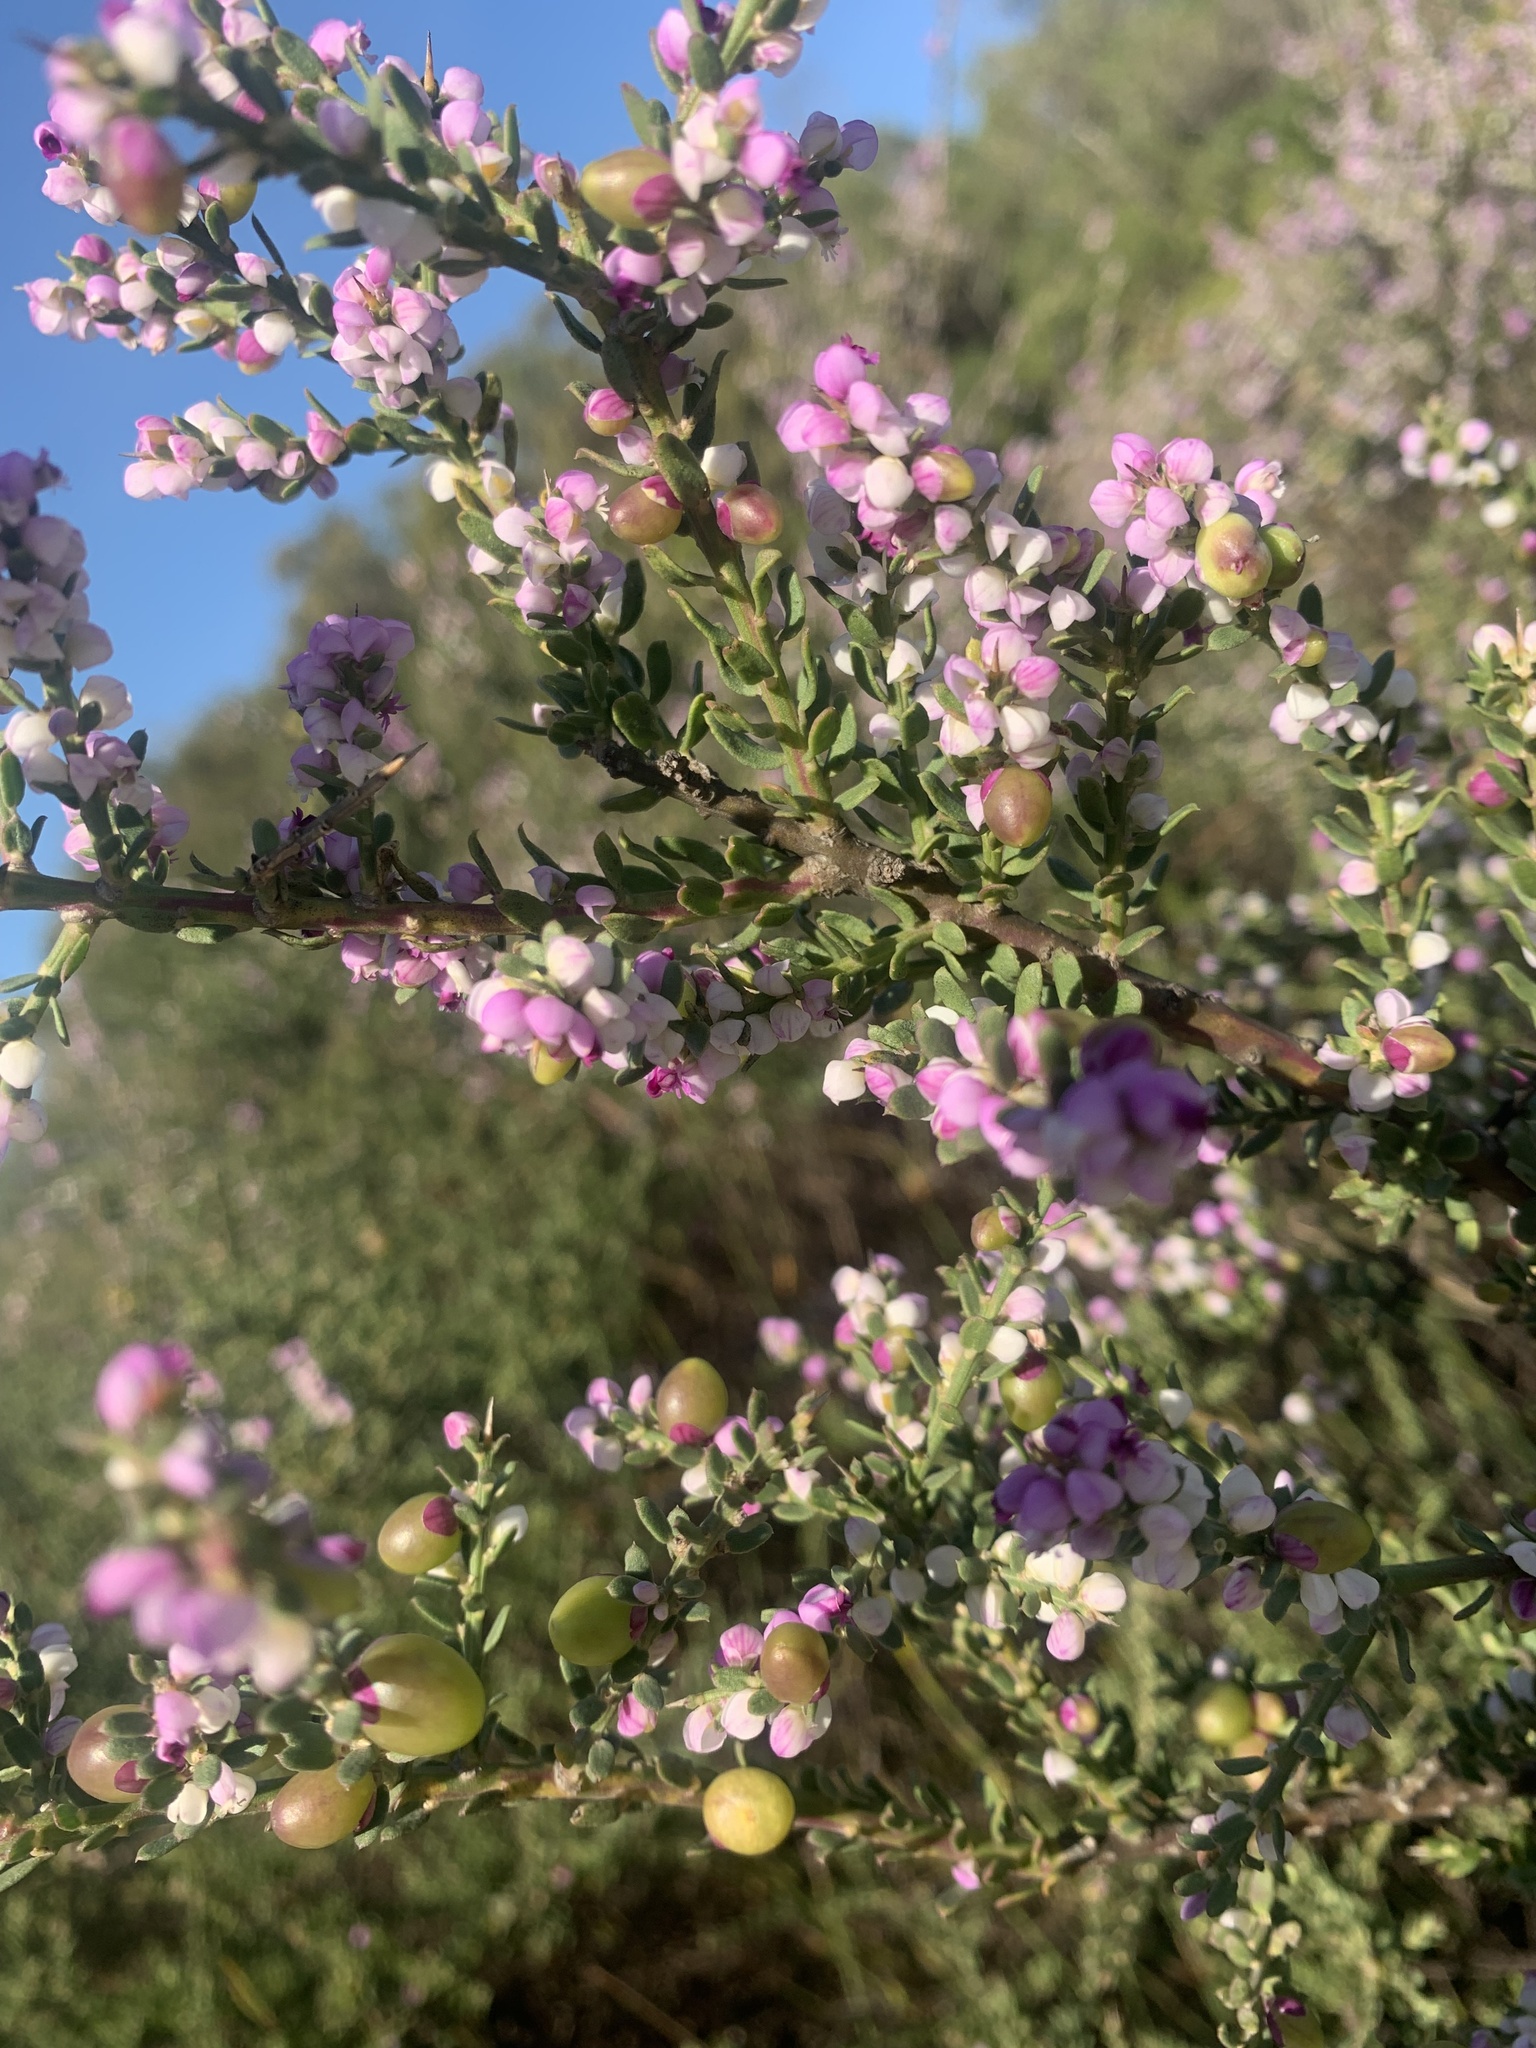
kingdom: Plantae
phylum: Tracheophyta
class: Magnoliopsida
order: Fabales
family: Polygalaceae
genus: Muraltia
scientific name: Muraltia spinosa
